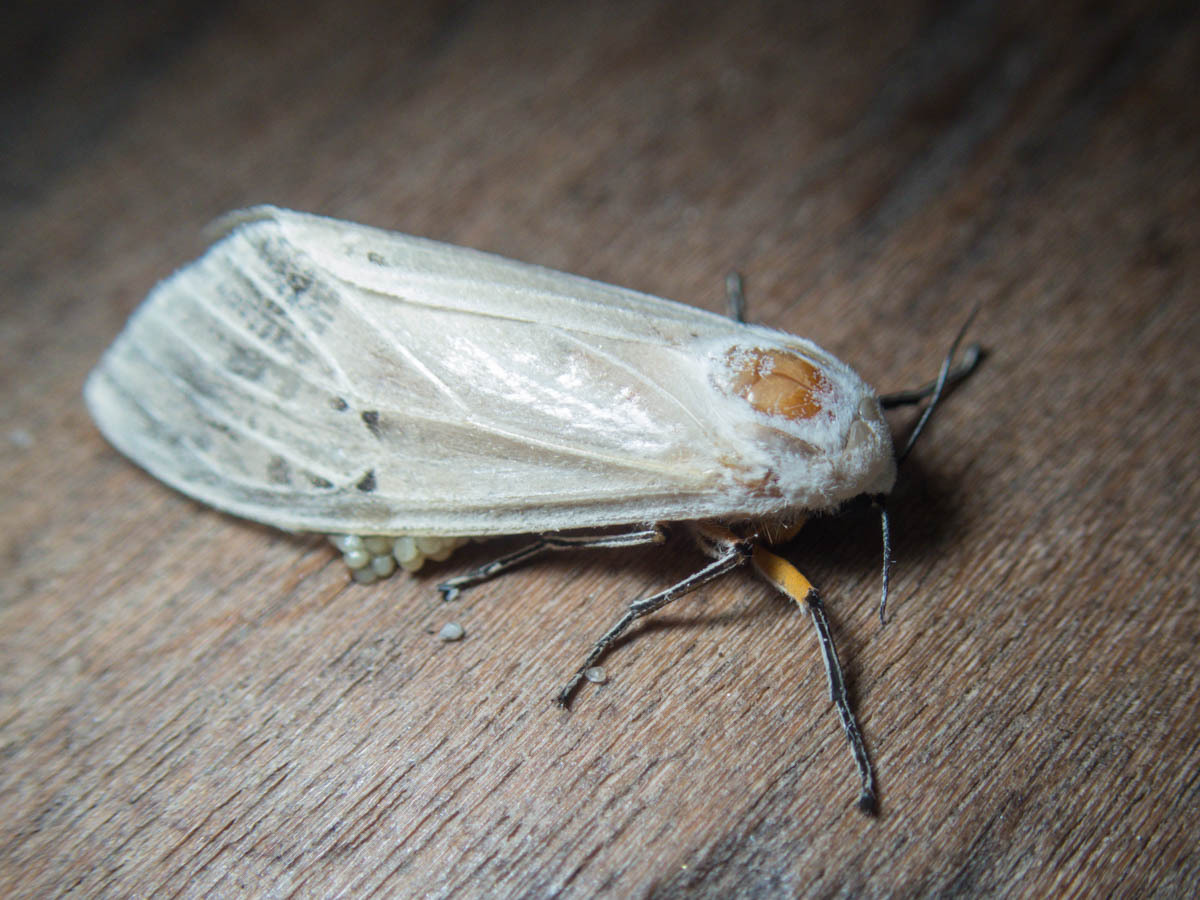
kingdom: Animalia
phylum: Arthropoda
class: Insecta
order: Lepidoptera
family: Erebidae
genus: Creatonotos
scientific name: Creatonotos transiens
